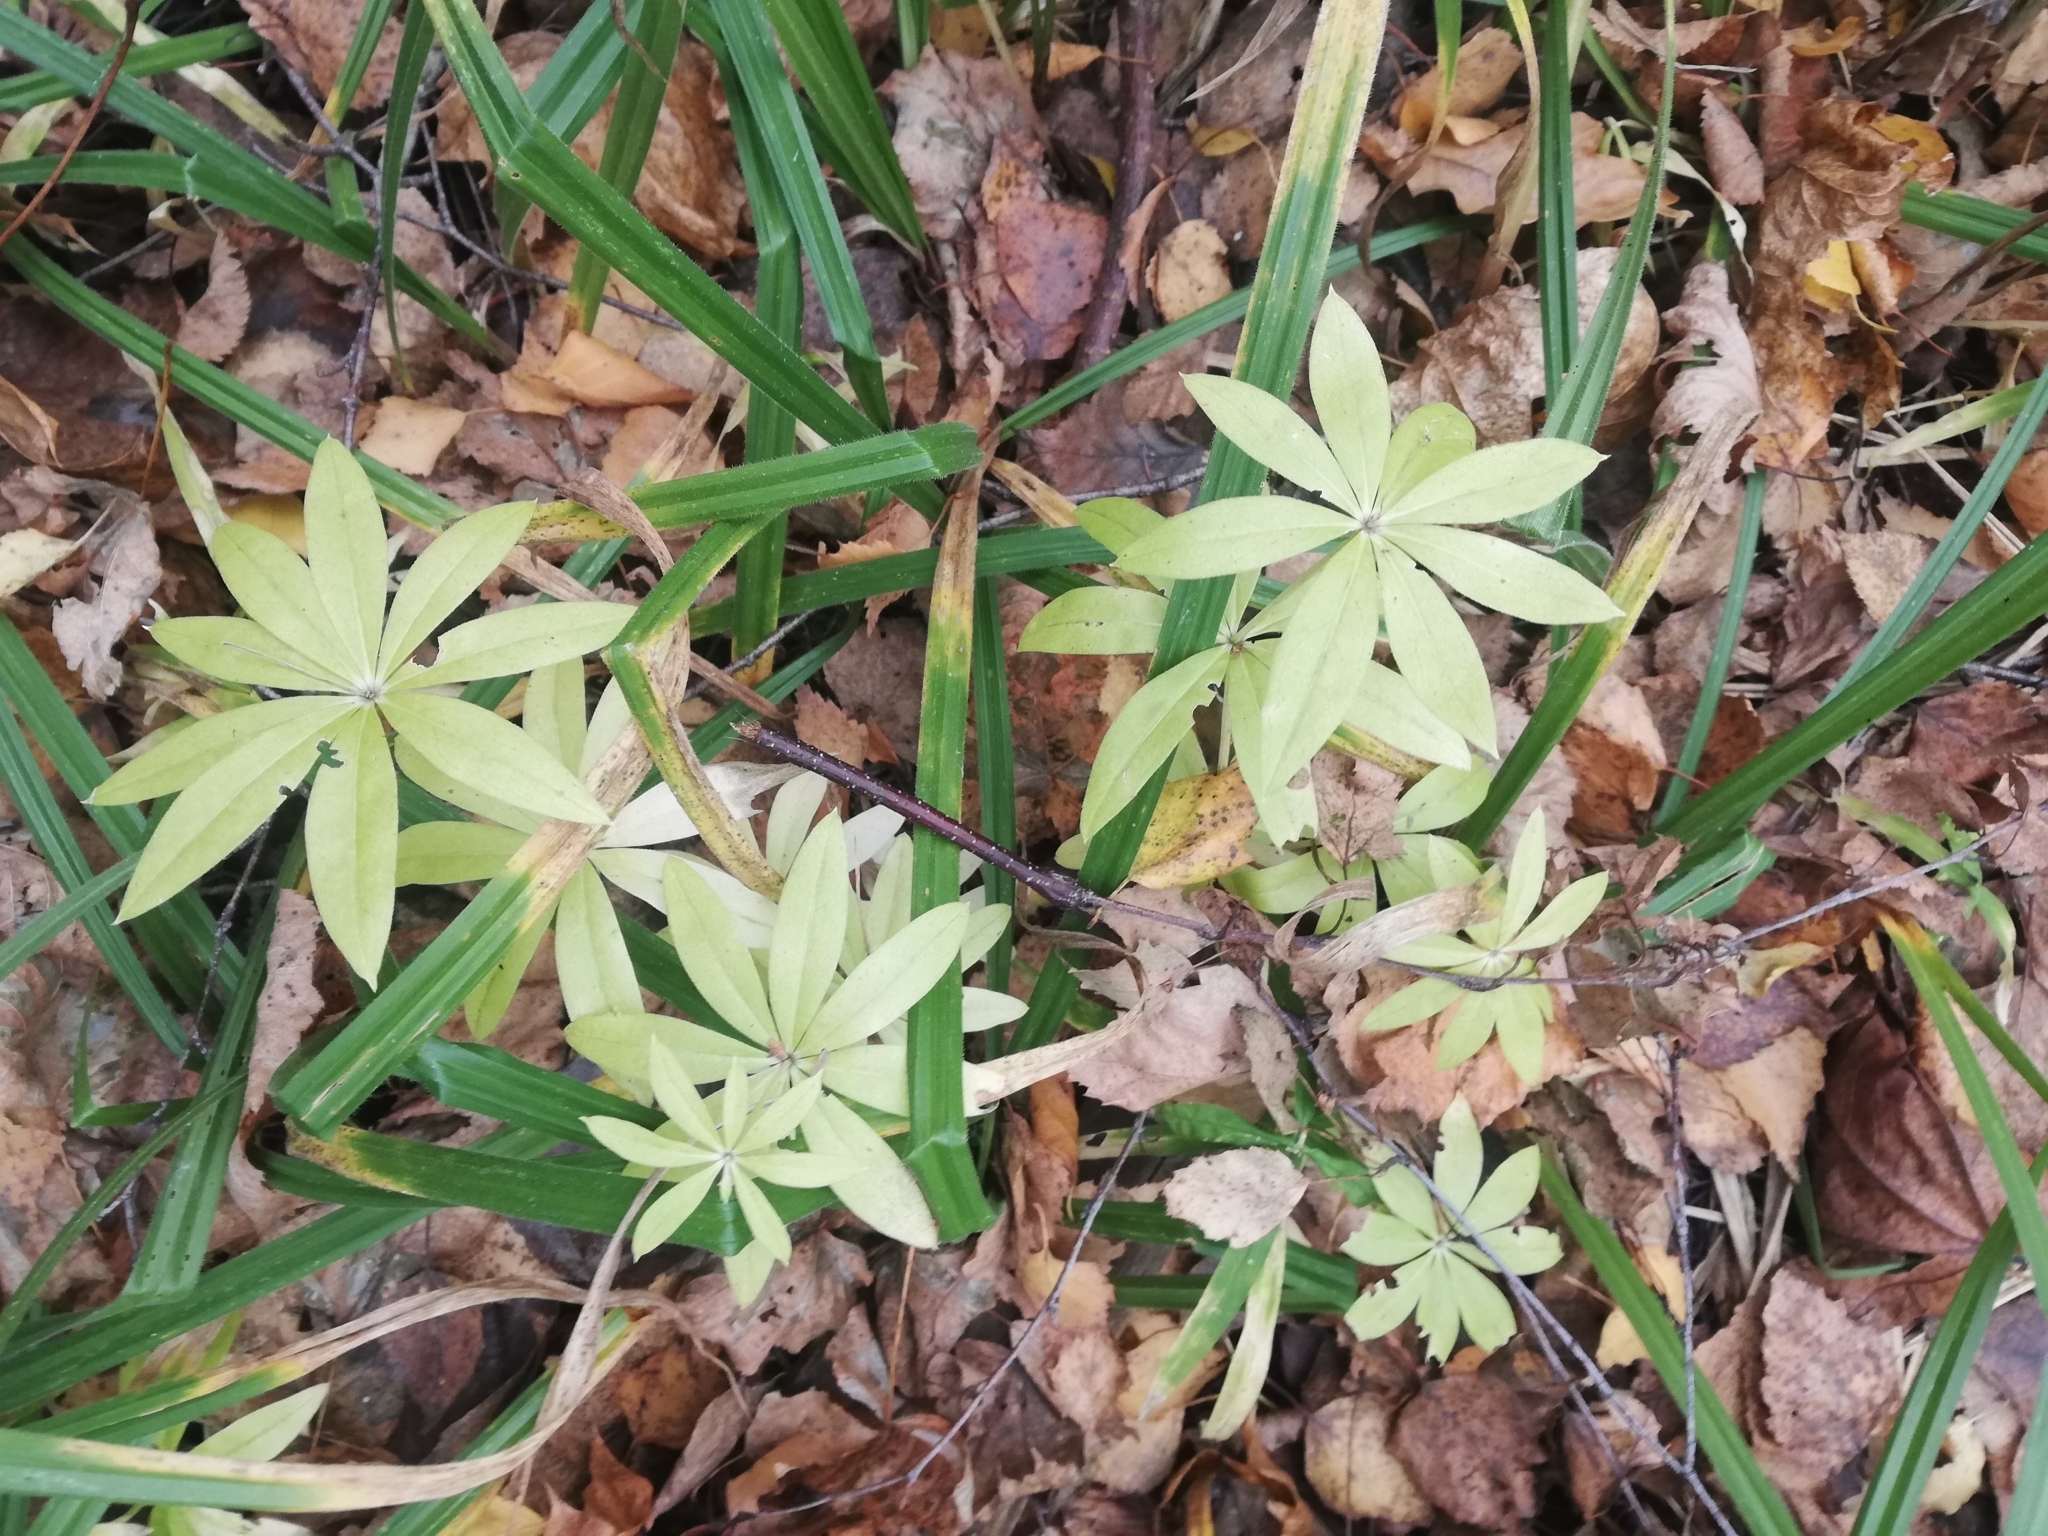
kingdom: Plantae
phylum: Tracheophyta
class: Magnoliopsida
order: Gentianales
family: Rubiaceae
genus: Galium
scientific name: Galium odoratum
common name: Sweet woodruff
